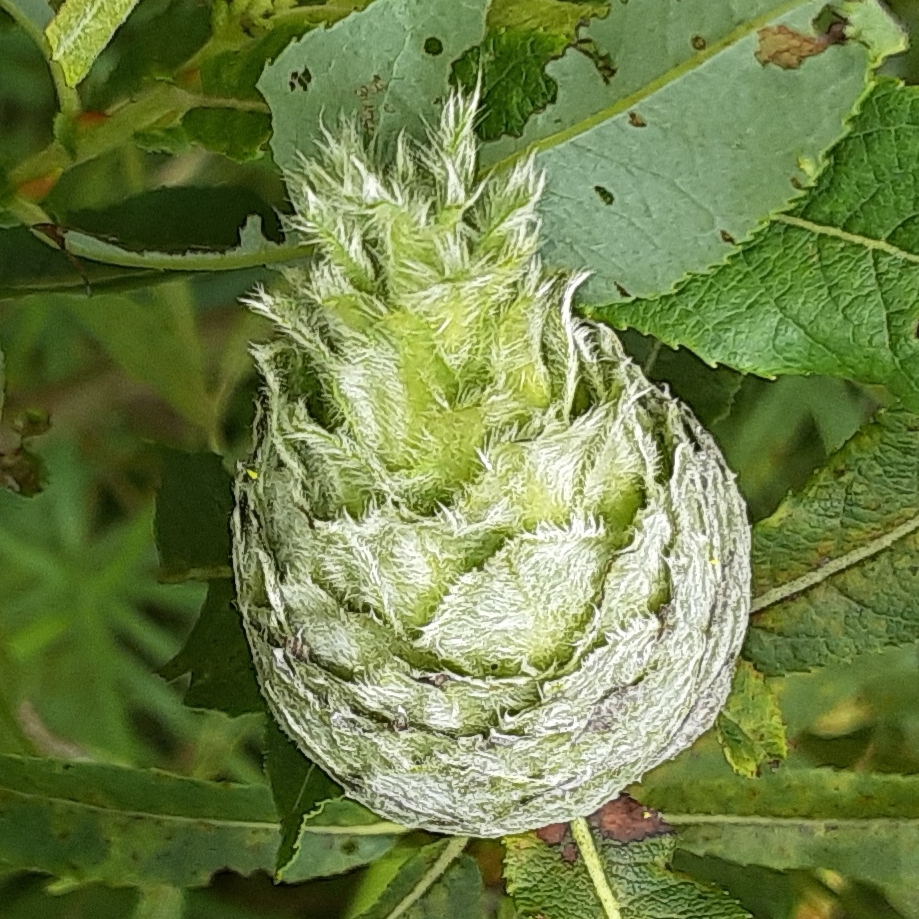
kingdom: Animalia
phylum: Arthropoda
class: Insecta
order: Diptera
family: Cecidomyiidae
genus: Rabdophaga
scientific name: Rabdophaga strobiloides
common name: Willow pinecone gall midge
